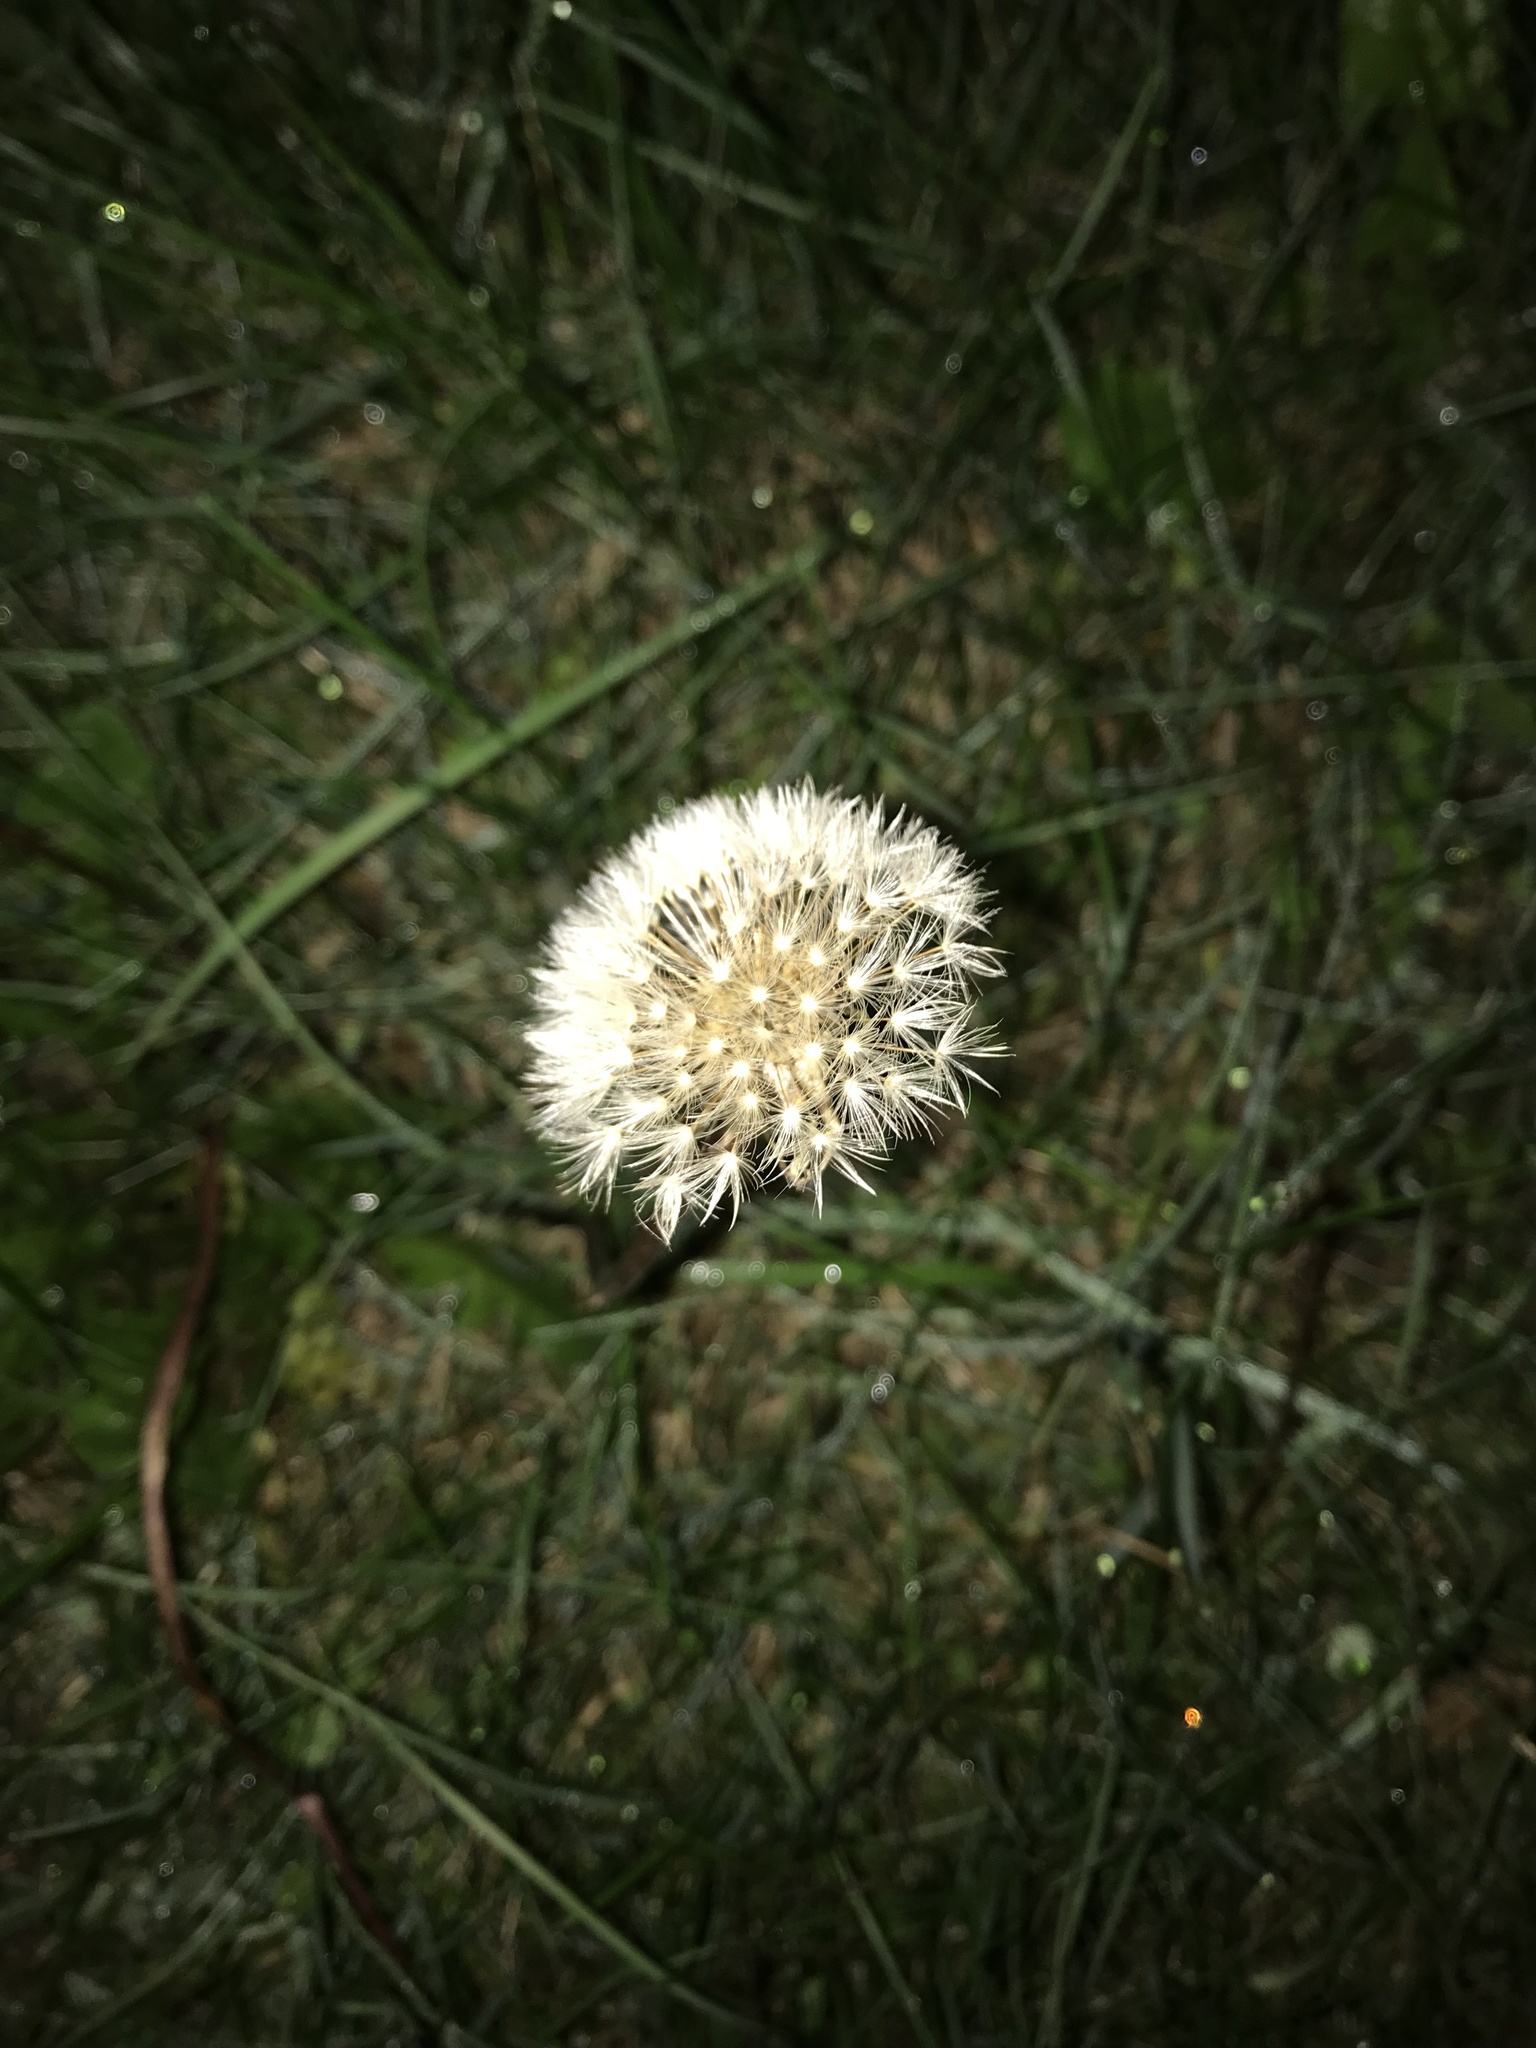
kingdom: Plantae
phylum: Tracheophyta
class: Magnoliopsida
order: Asterales
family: Asteraceae
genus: Taraxacum
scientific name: Taraxacum officinale
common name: Common dandelion
